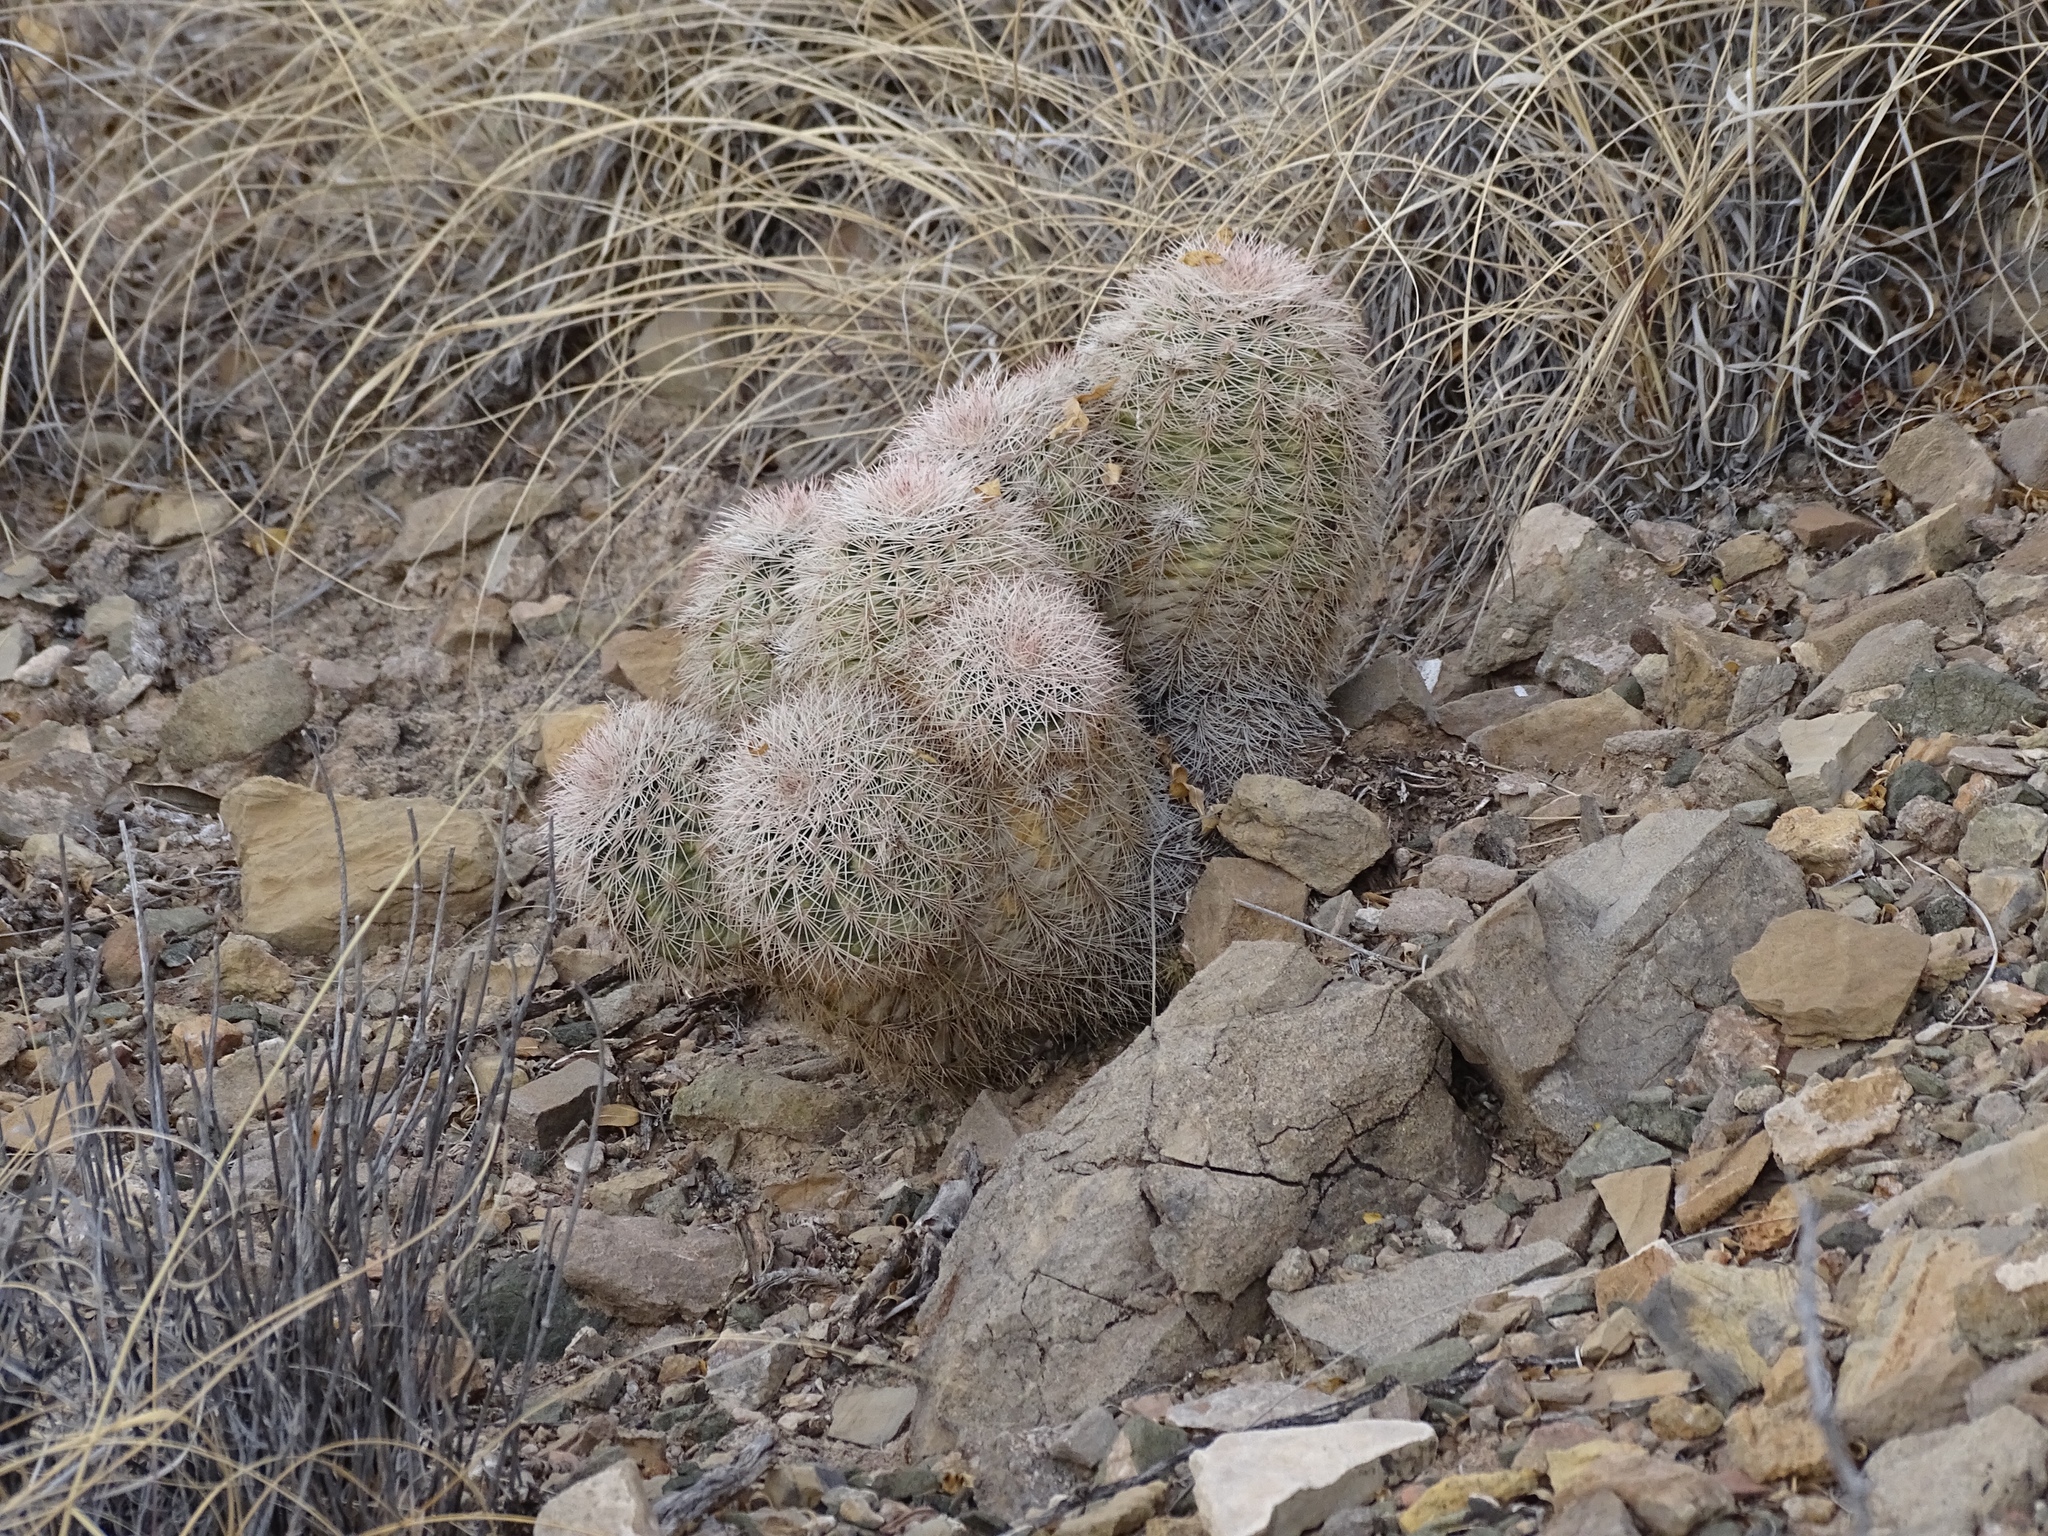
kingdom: Plantae
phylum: Tracheophyta
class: Magnoliopsida
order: Caryophyllales
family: Cactaceae
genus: Echinocereus
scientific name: Echinocereus dasyacanthus
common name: Spiny hedgehog cactus
